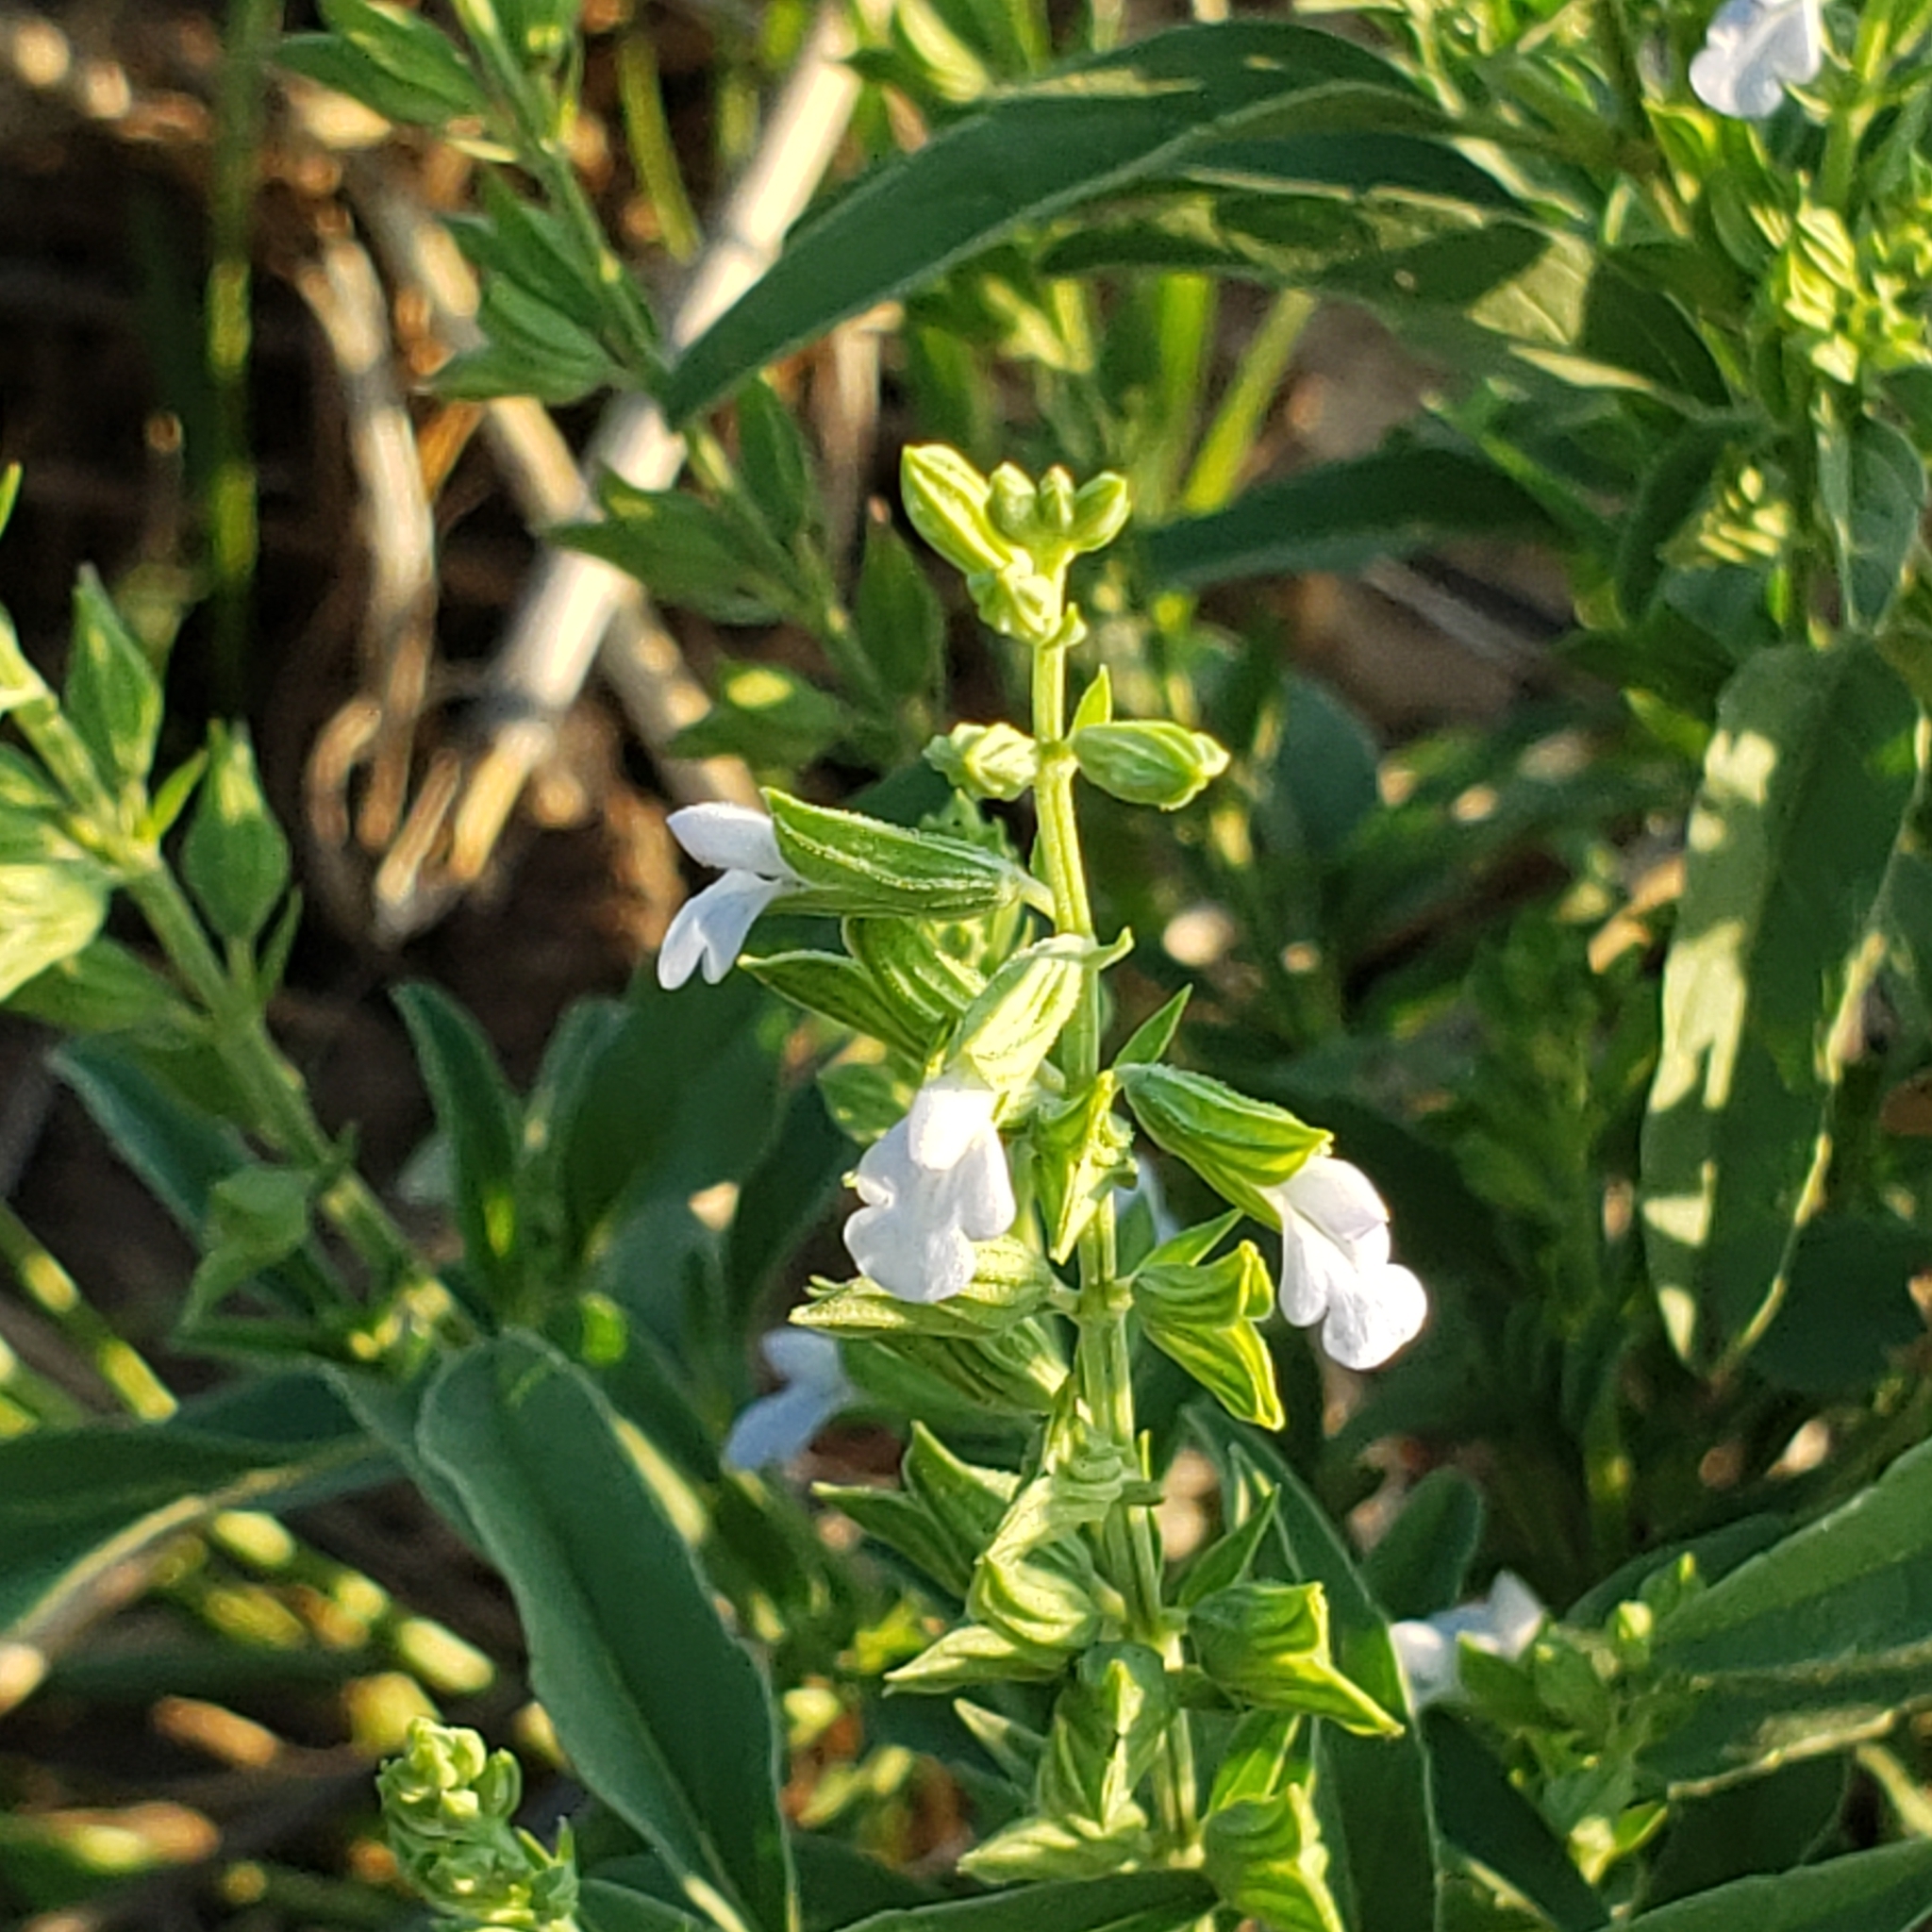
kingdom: Plantae
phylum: Tracheophyta
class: Magnoliopsida
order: Lamiales
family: Lamiaceae
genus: Salvia
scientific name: Salvia reflexa
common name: Mintweed
